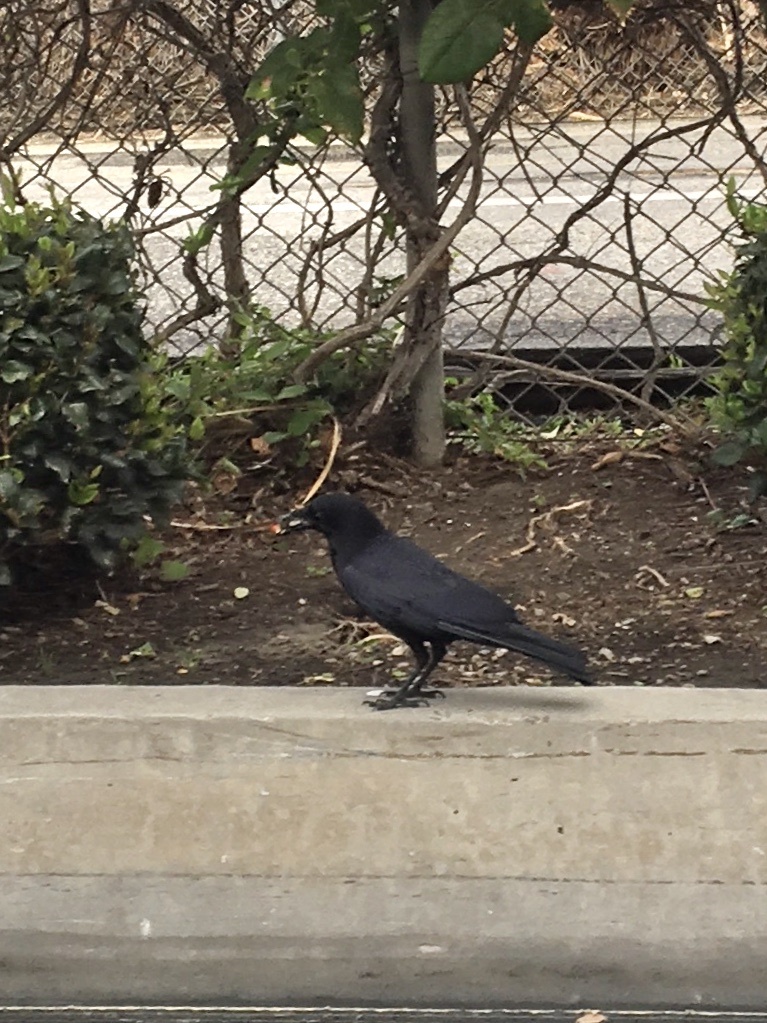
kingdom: Animalia
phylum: Chordata
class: Aves
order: Passeriformes
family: Corvidae
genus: Corvus
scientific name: Corvus brachyrhynchos
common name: American crow
